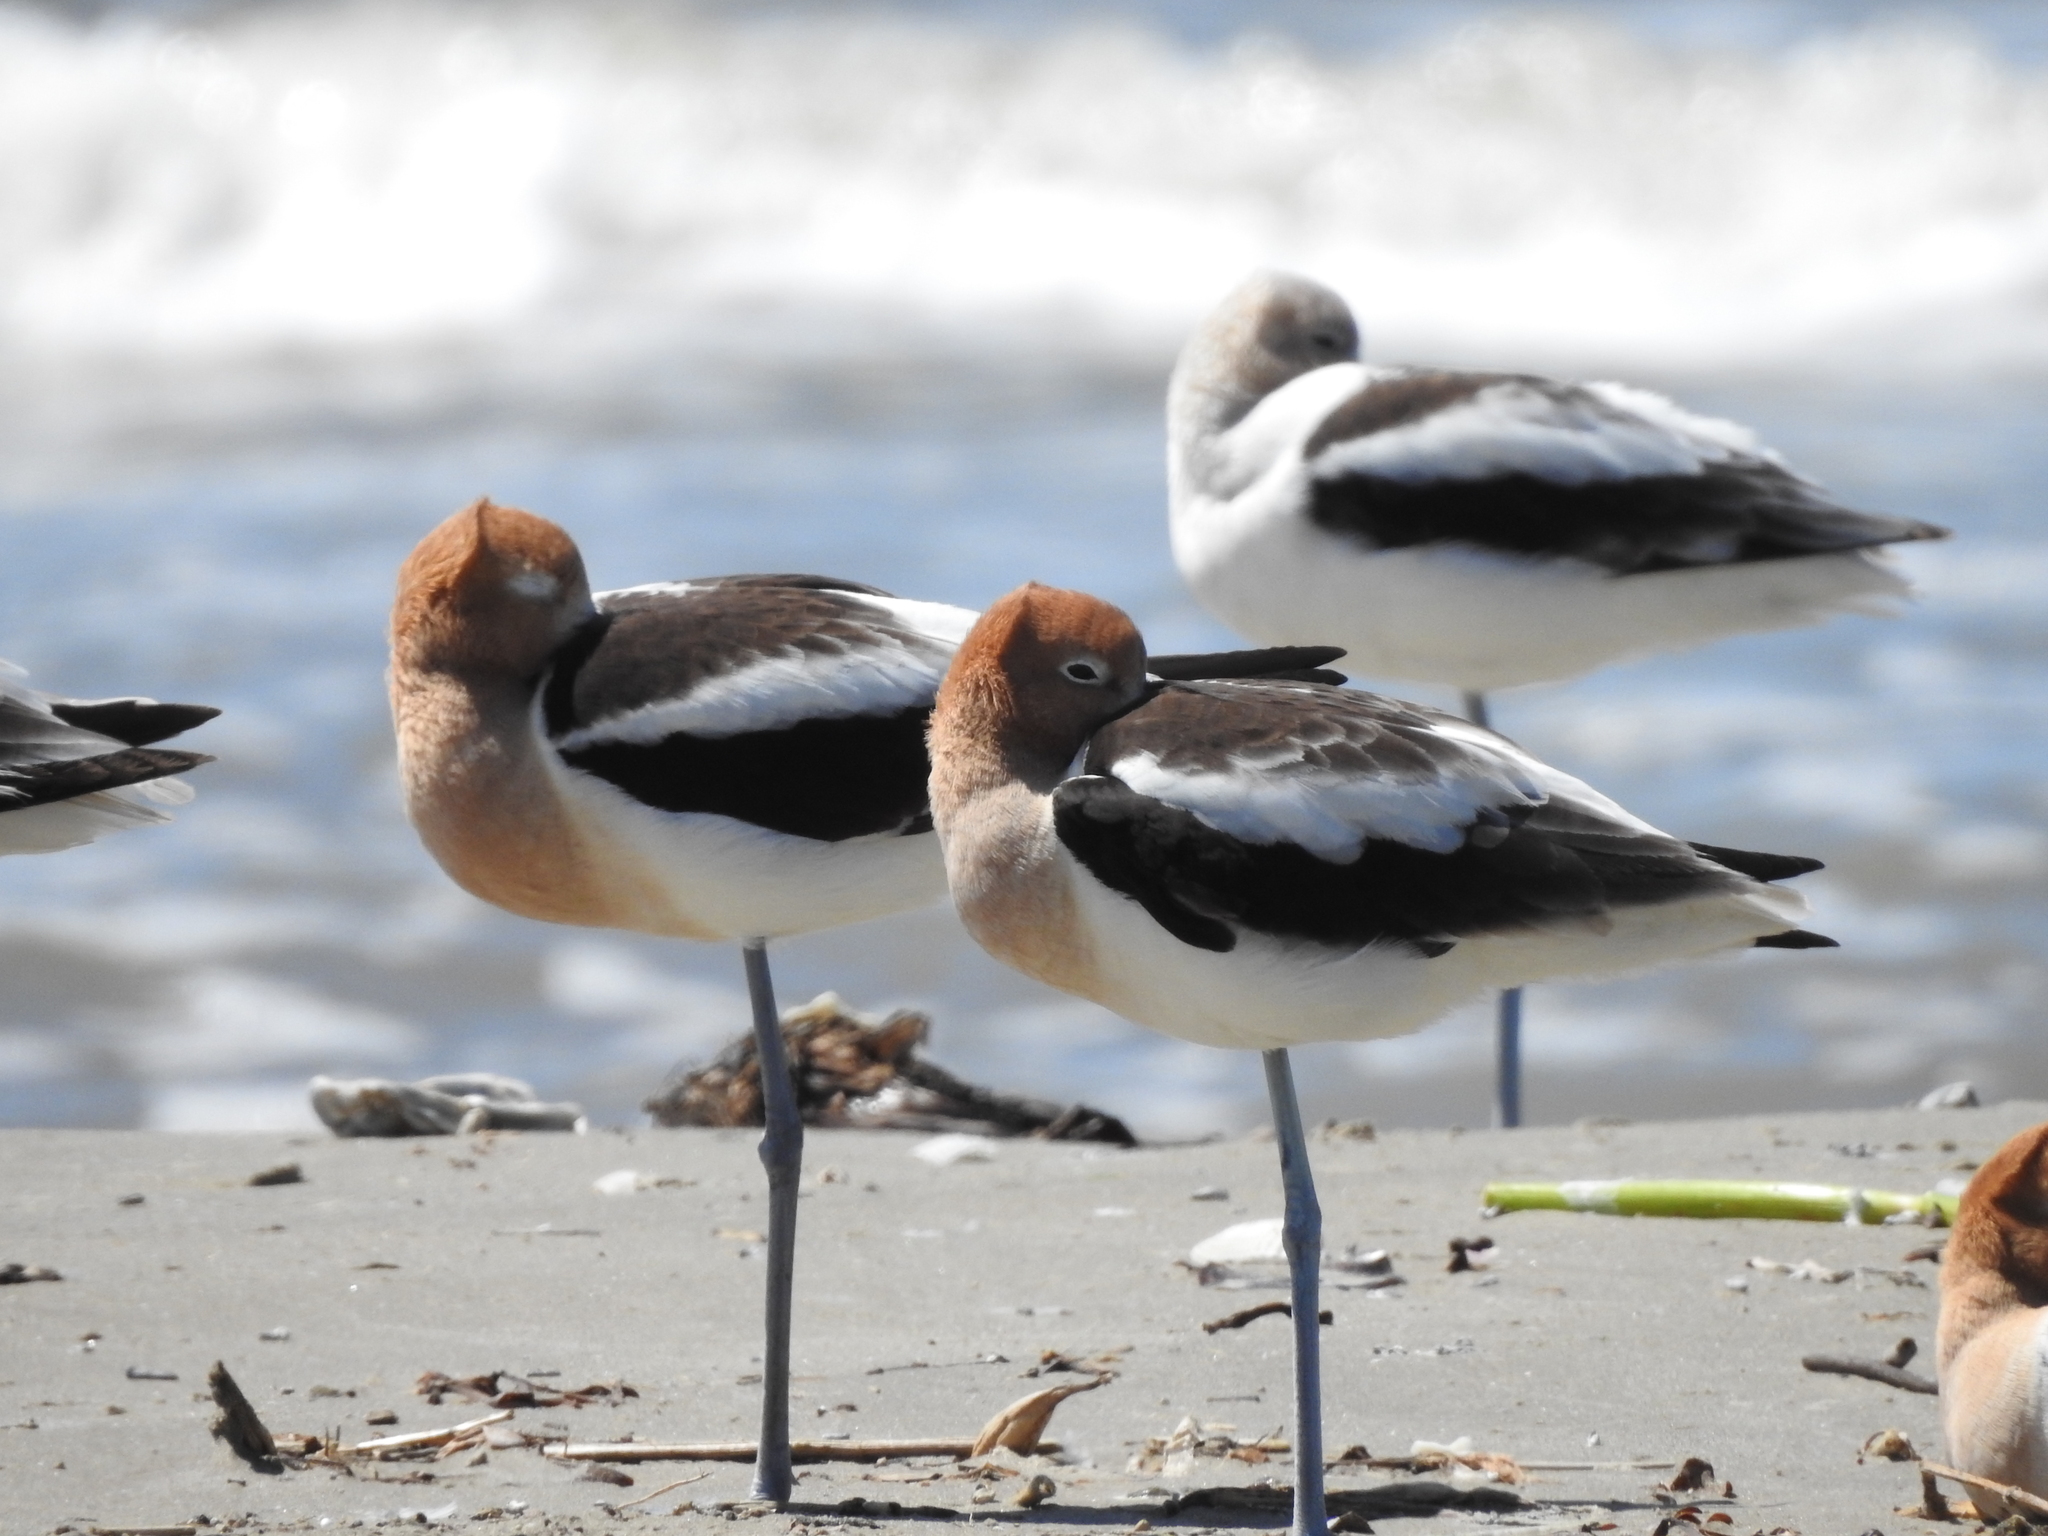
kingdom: Animalia
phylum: Chordata
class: Aves
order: Charadriiformes
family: Recurvirostridae
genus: Recurvirostra
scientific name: Recurvirostra americana
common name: American avocet
